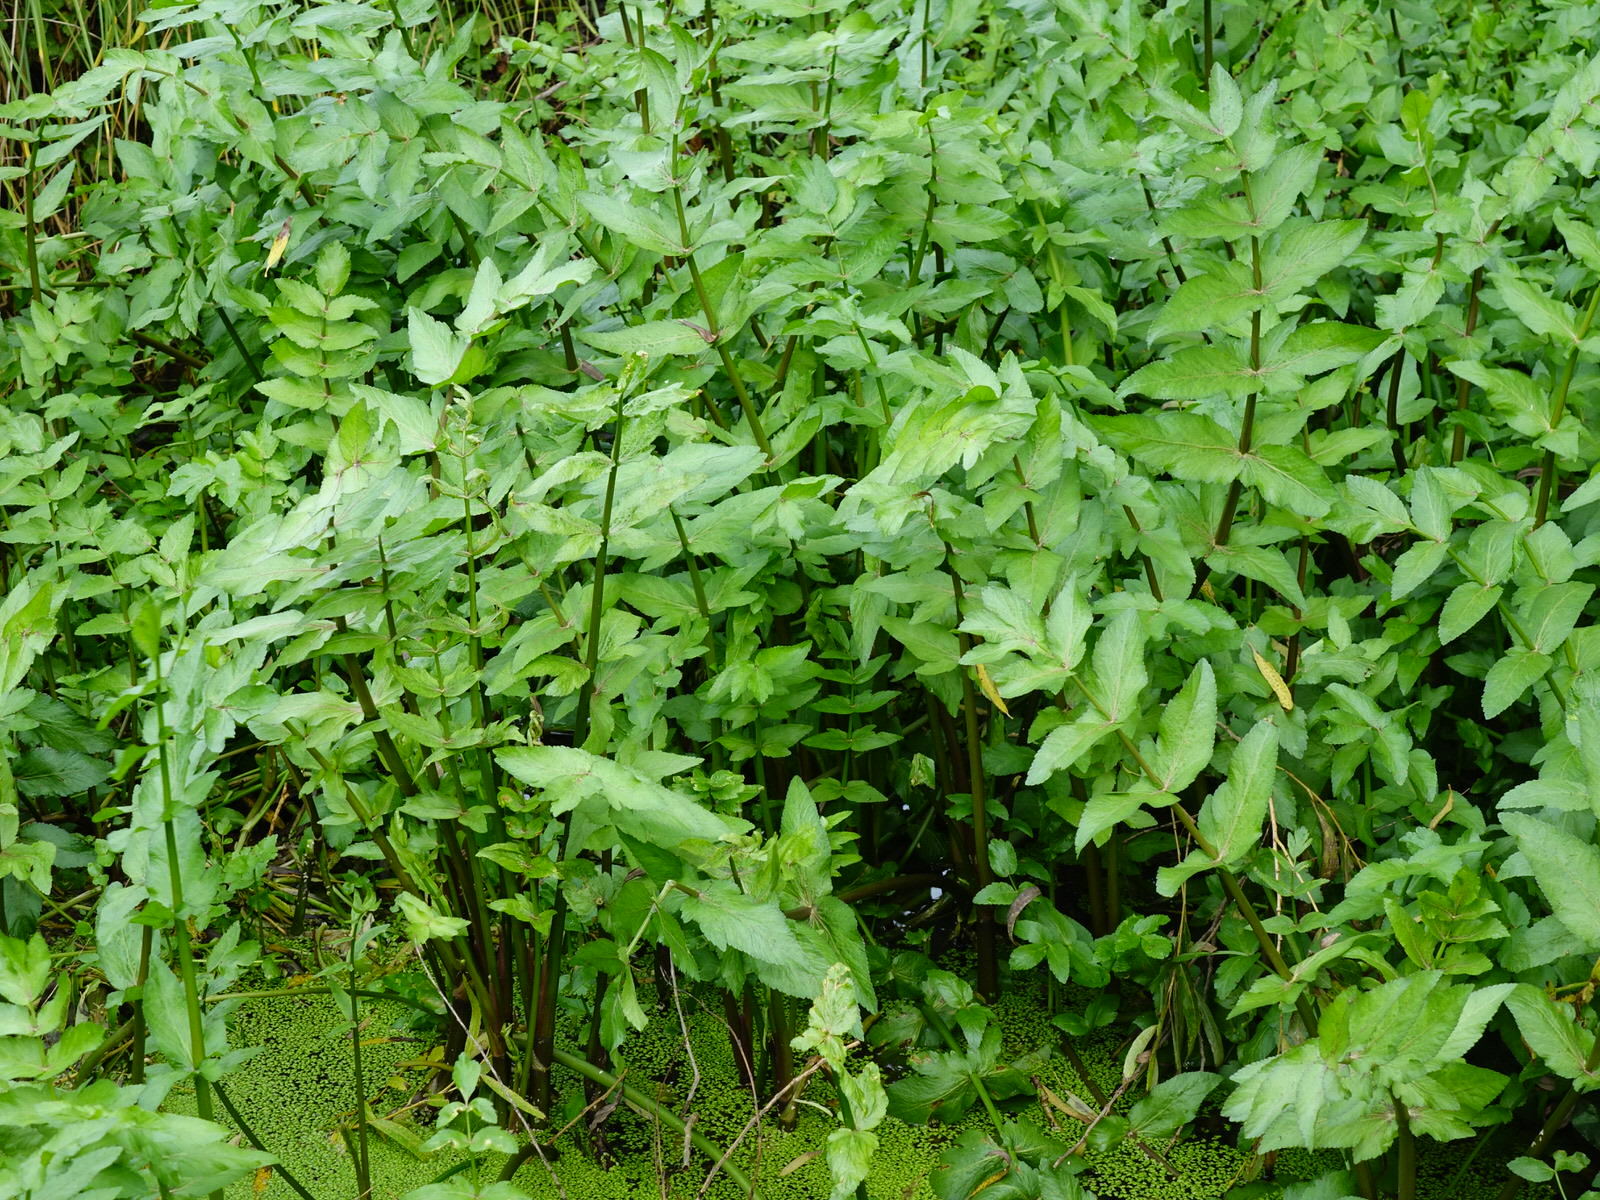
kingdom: Plantae
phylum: Tracheophyta
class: Magnoliopsida
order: Apiales
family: Apiaceae
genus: Helosciadium
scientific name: Helosciadium nodiflorum
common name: Fool's-watercress
